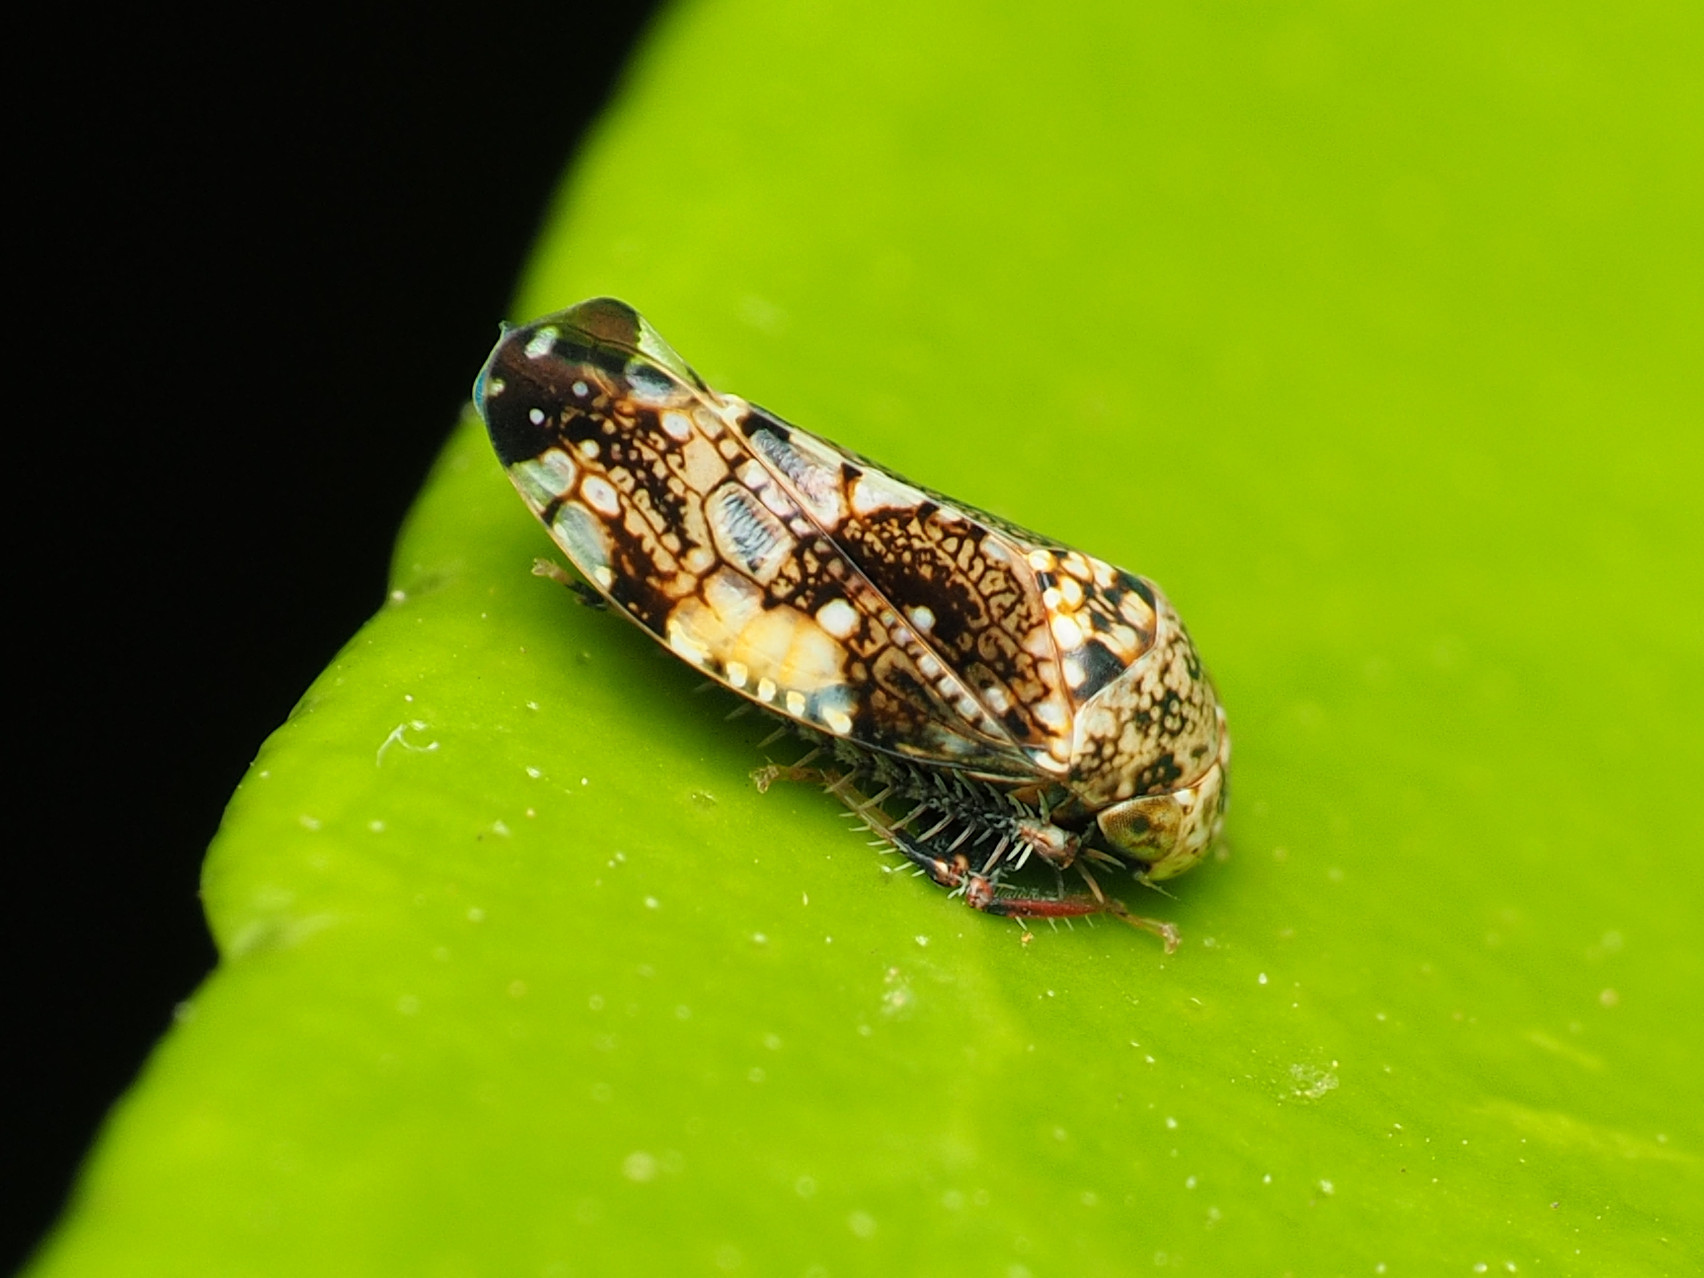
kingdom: Animalia
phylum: Arthropoda
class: Insecta
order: Hemiptera
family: Cicadellidae
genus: Penthimiola
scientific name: Penthimiola bella
